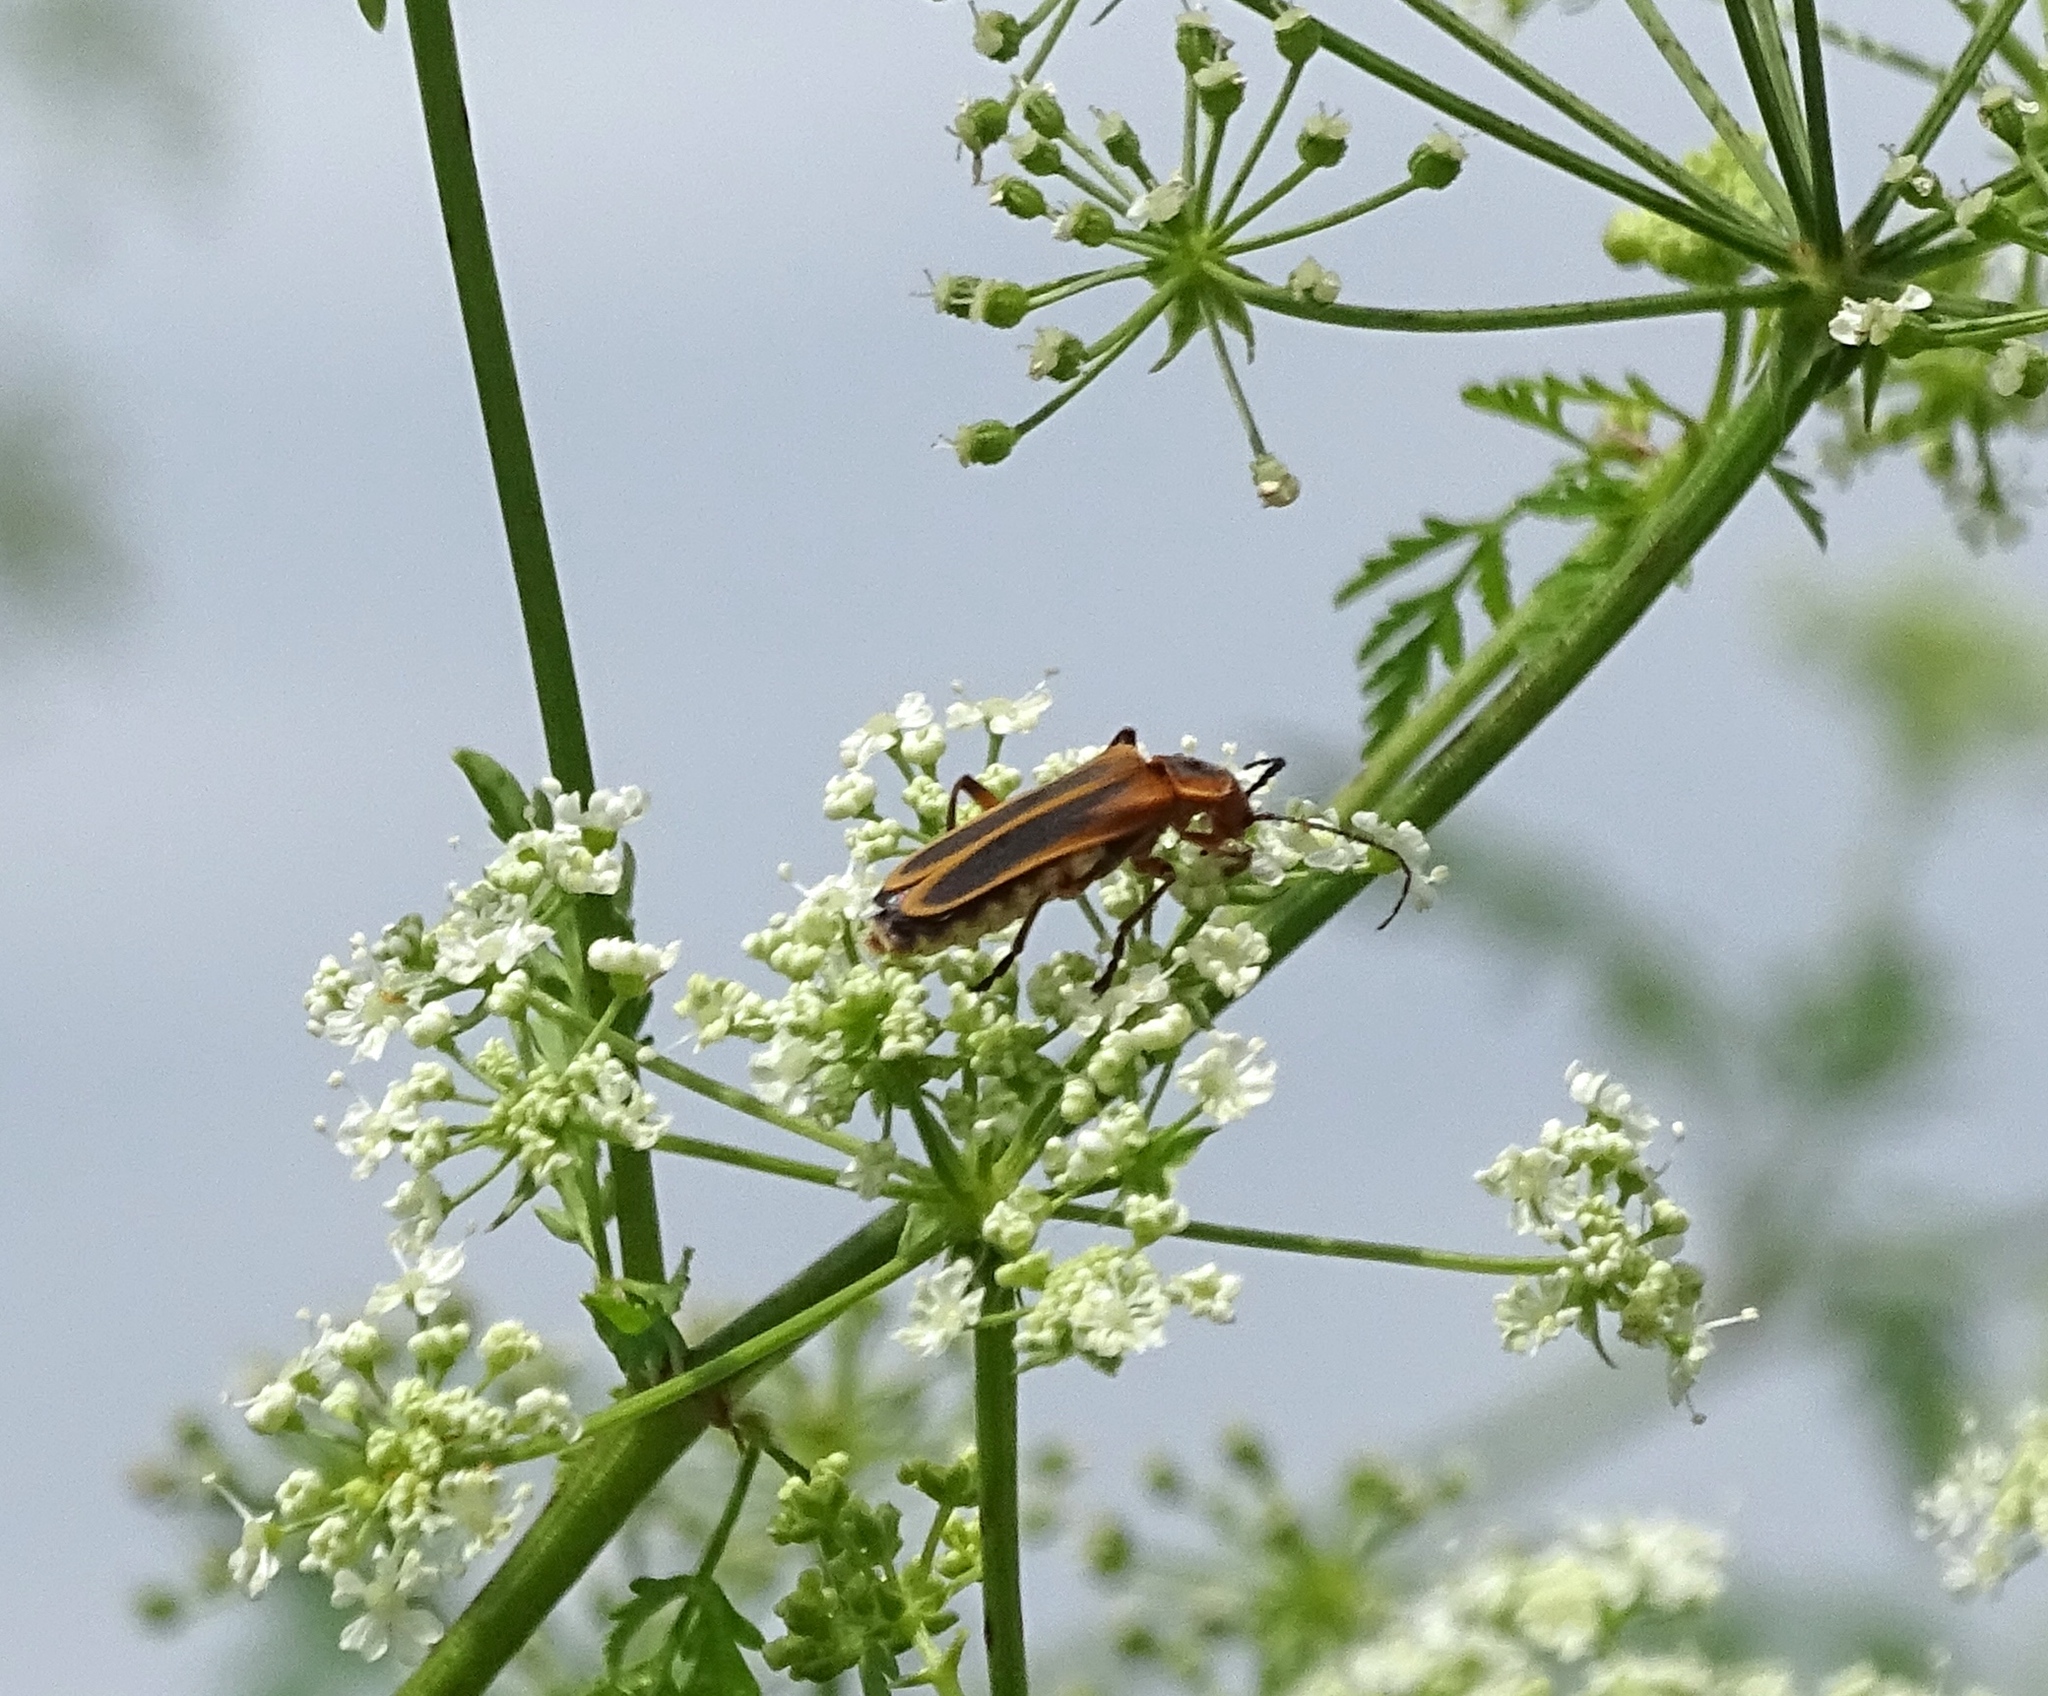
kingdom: Animalia
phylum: Arthropoda
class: Insecta
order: Coleoptera
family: Cantharidae
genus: Chauliognathus
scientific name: Chauliognathus marginatus
